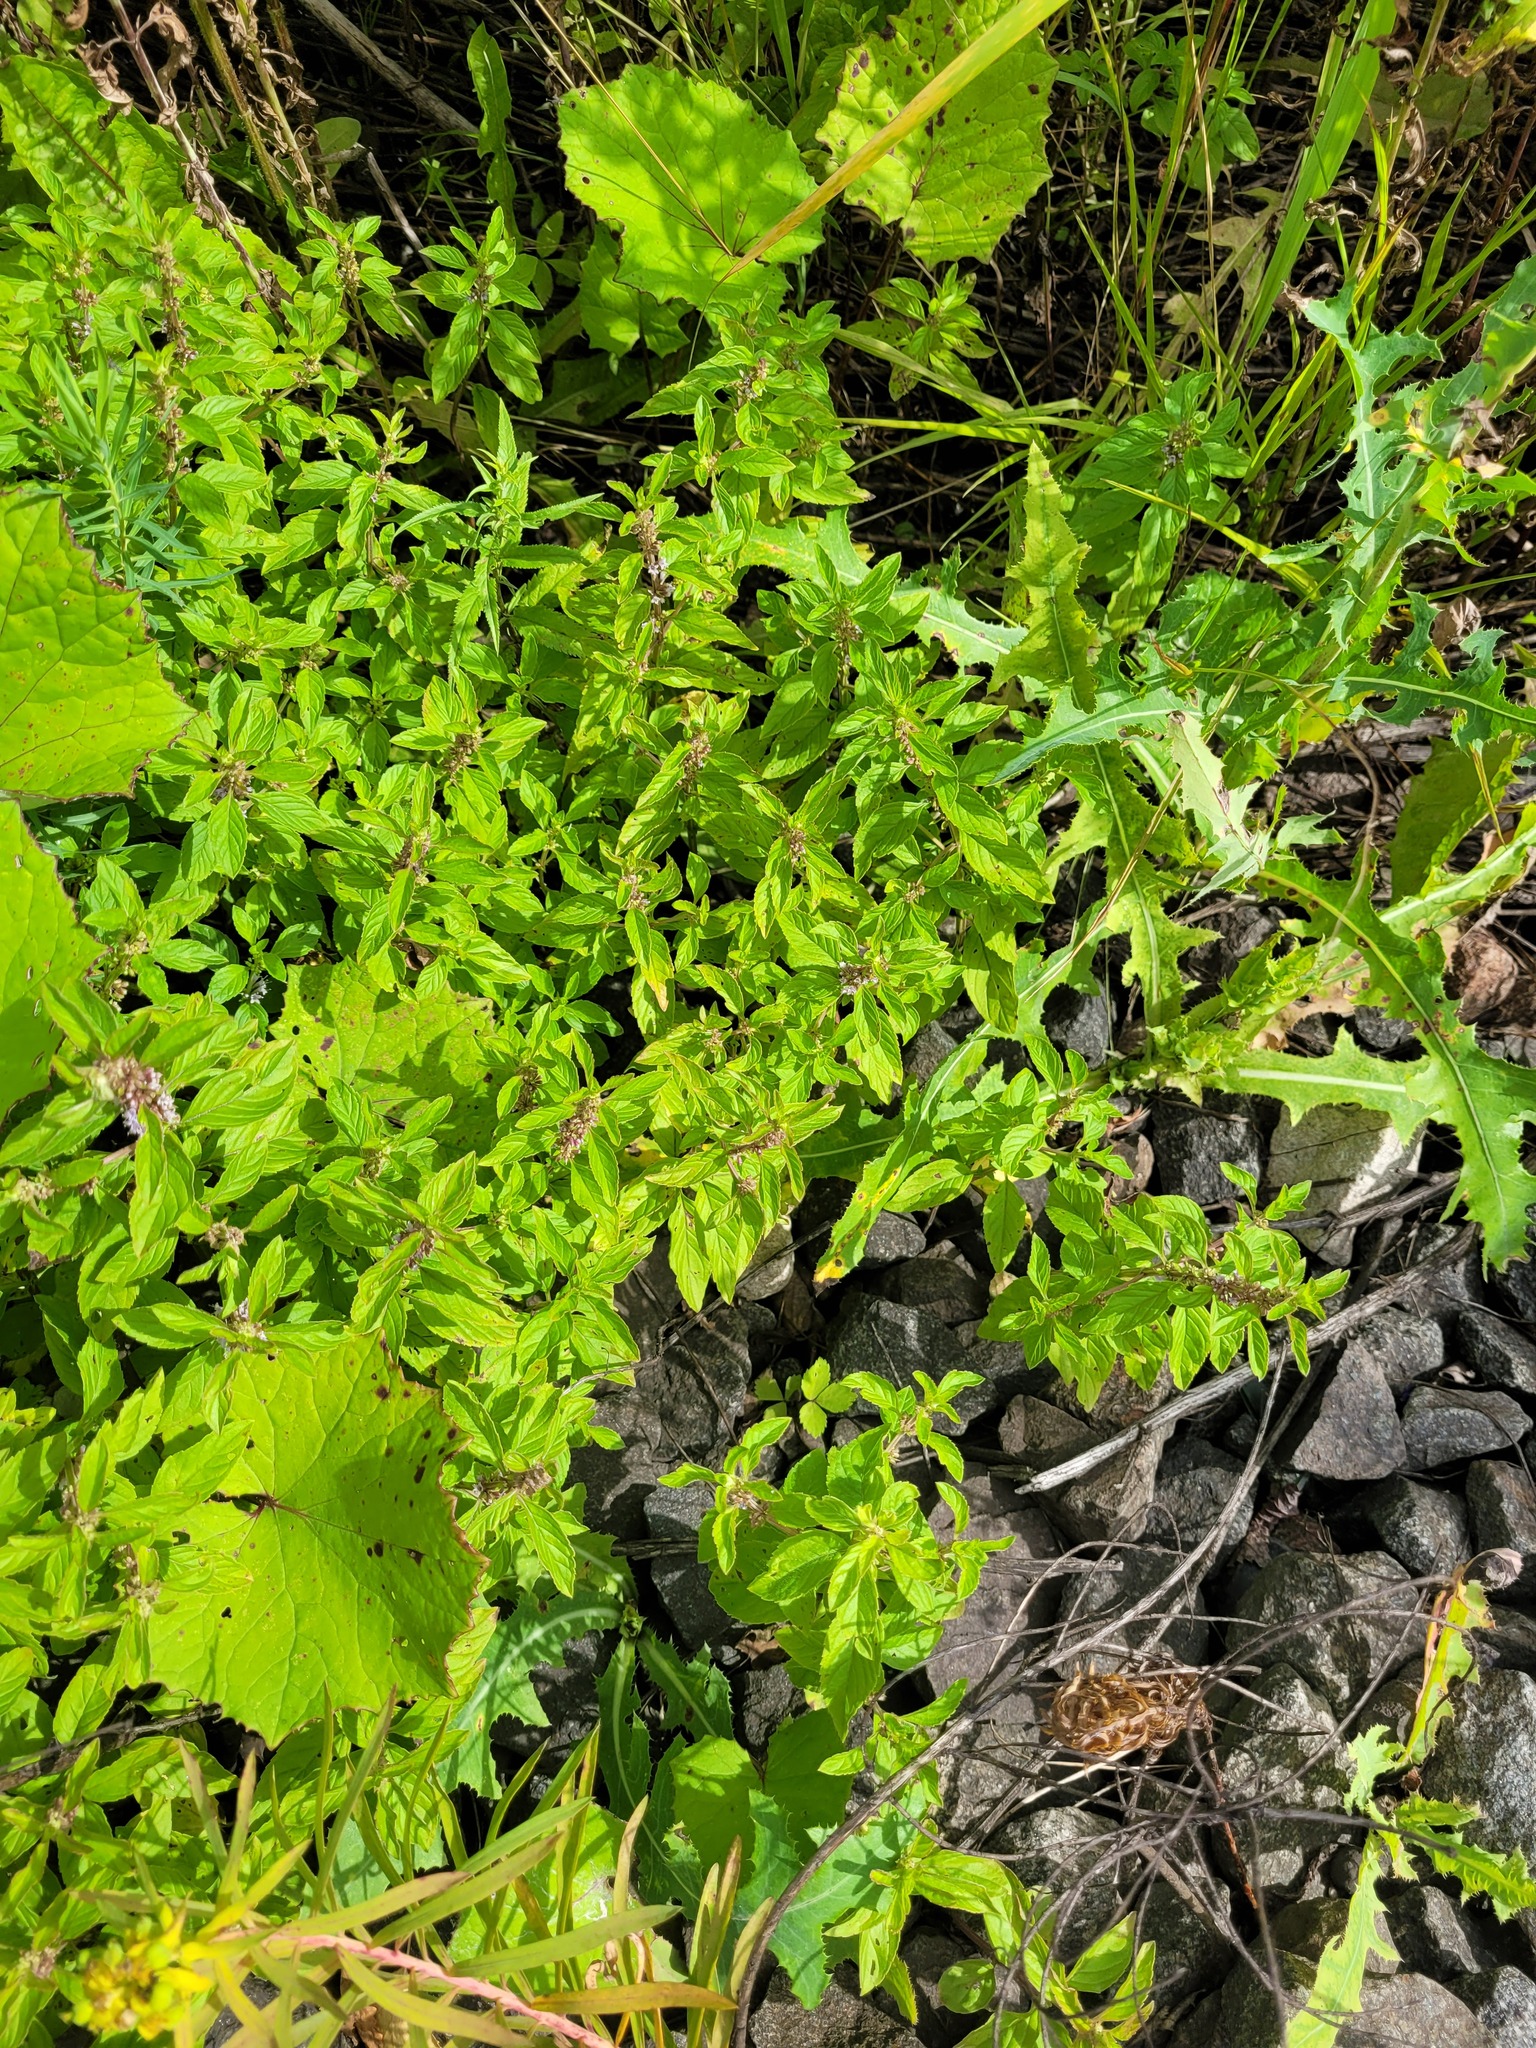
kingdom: Plantae
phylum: Tracheophyta
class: Magnoliopsida
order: Lamiales
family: Lamiaceae
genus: Mentha
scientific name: Mentha arvensis
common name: Corn mint
